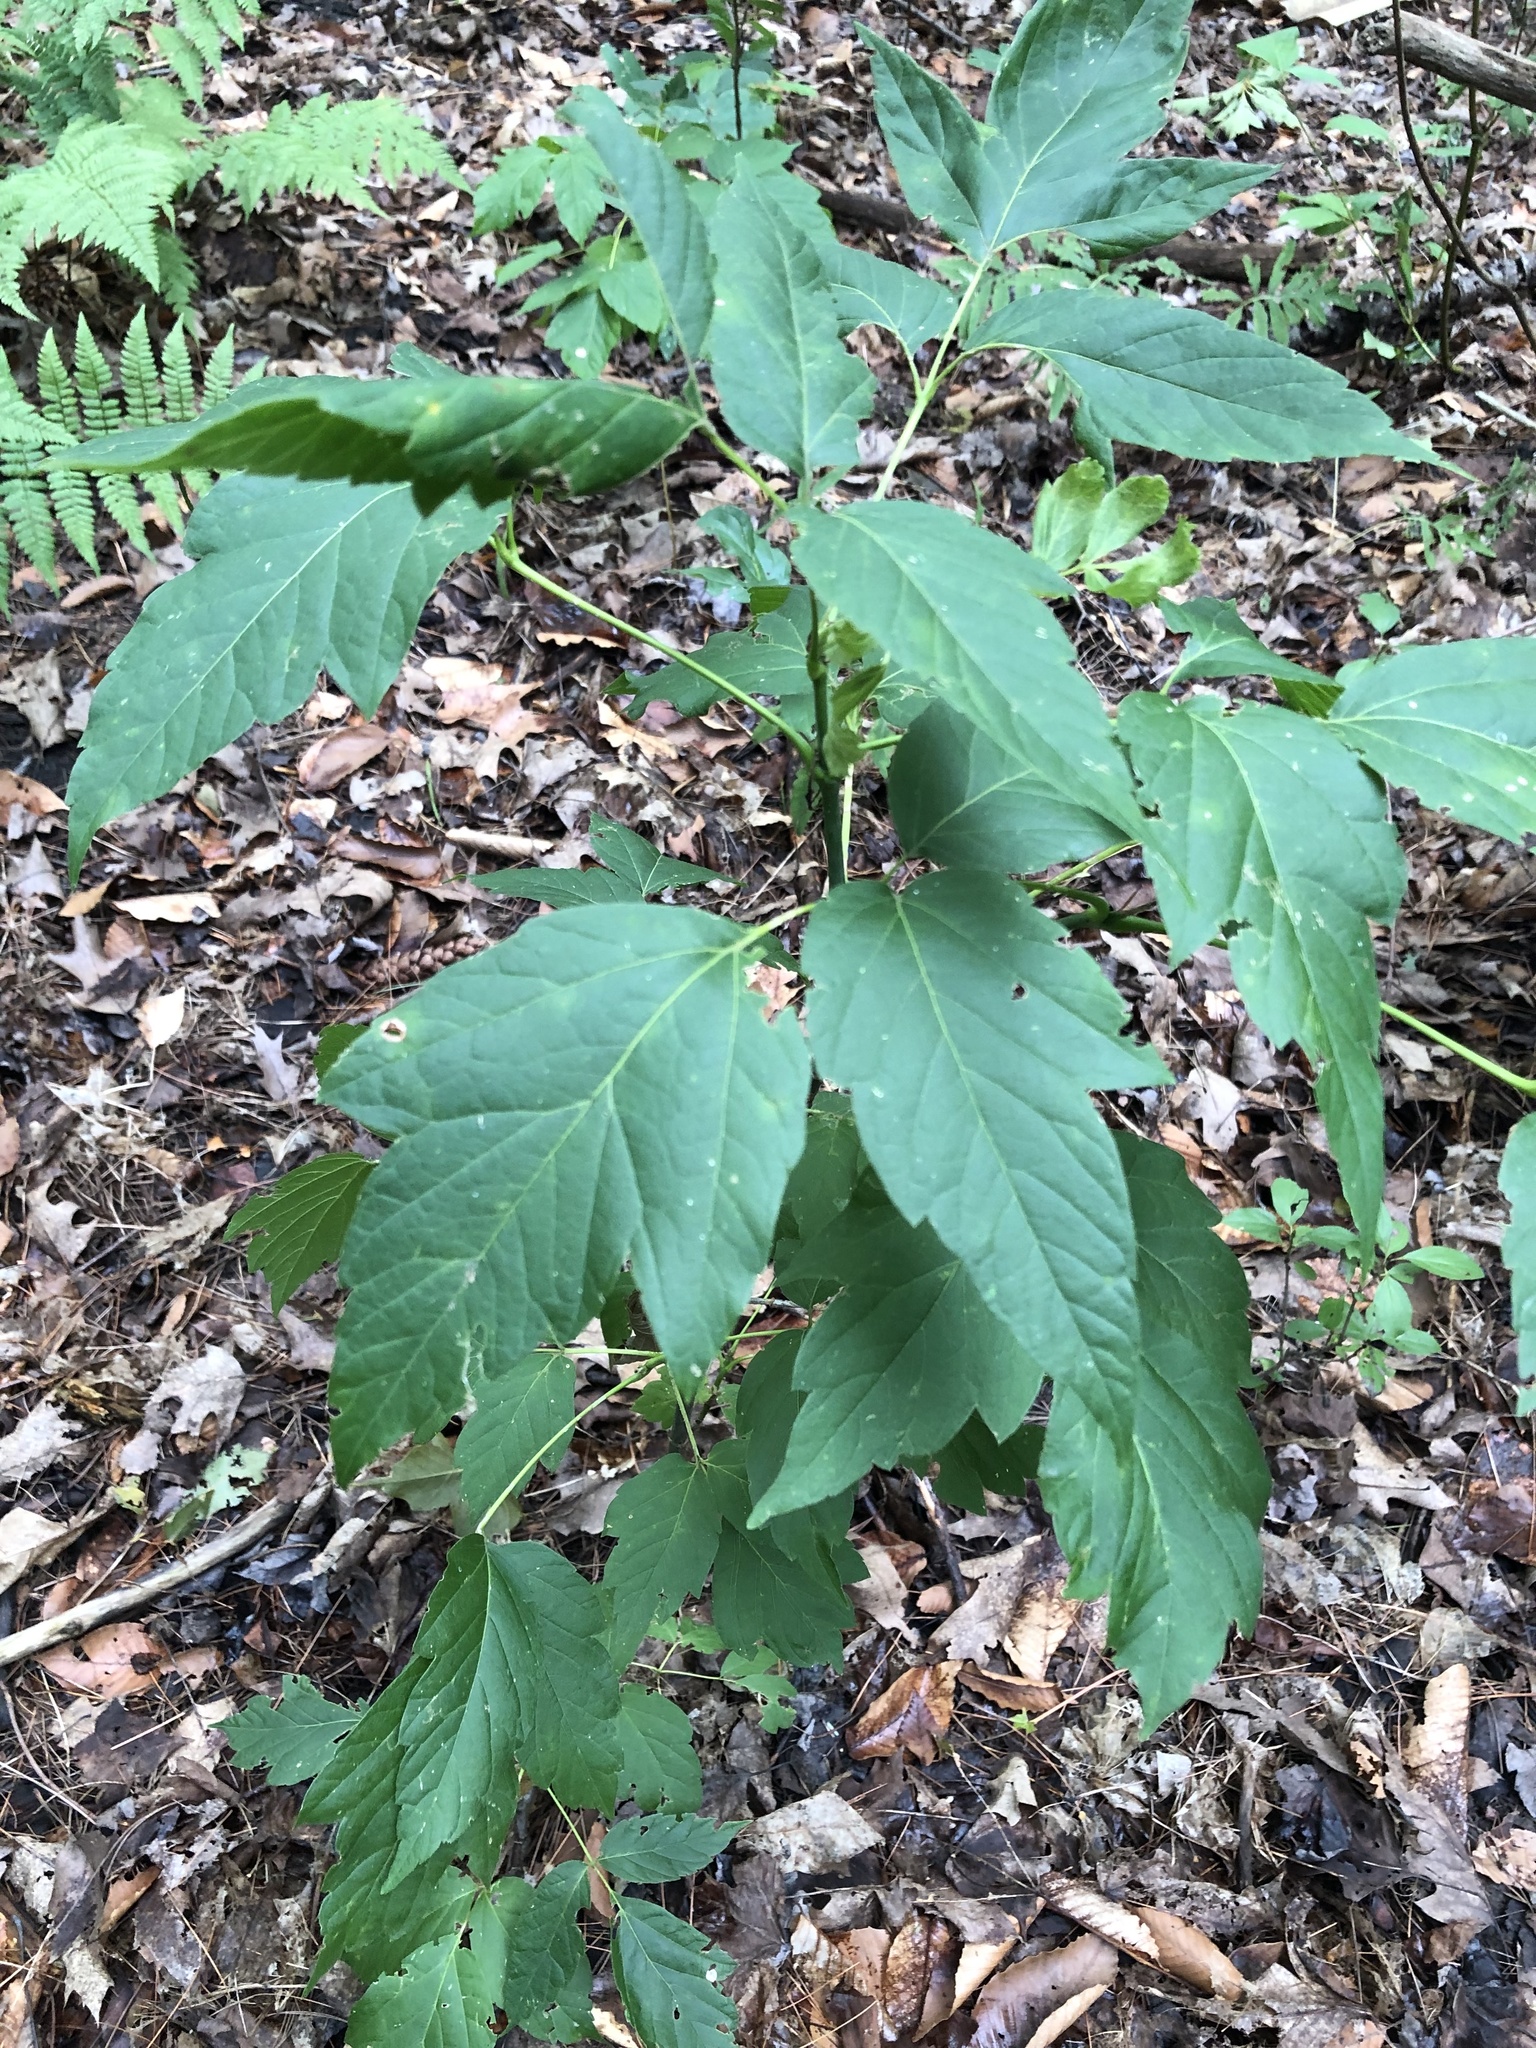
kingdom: Plantae
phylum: Tracheophyta
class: Magnoliopsida
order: Sapindales
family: Sapindaceae
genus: Acer
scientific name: Acer negundo
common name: Ashleaf maple
